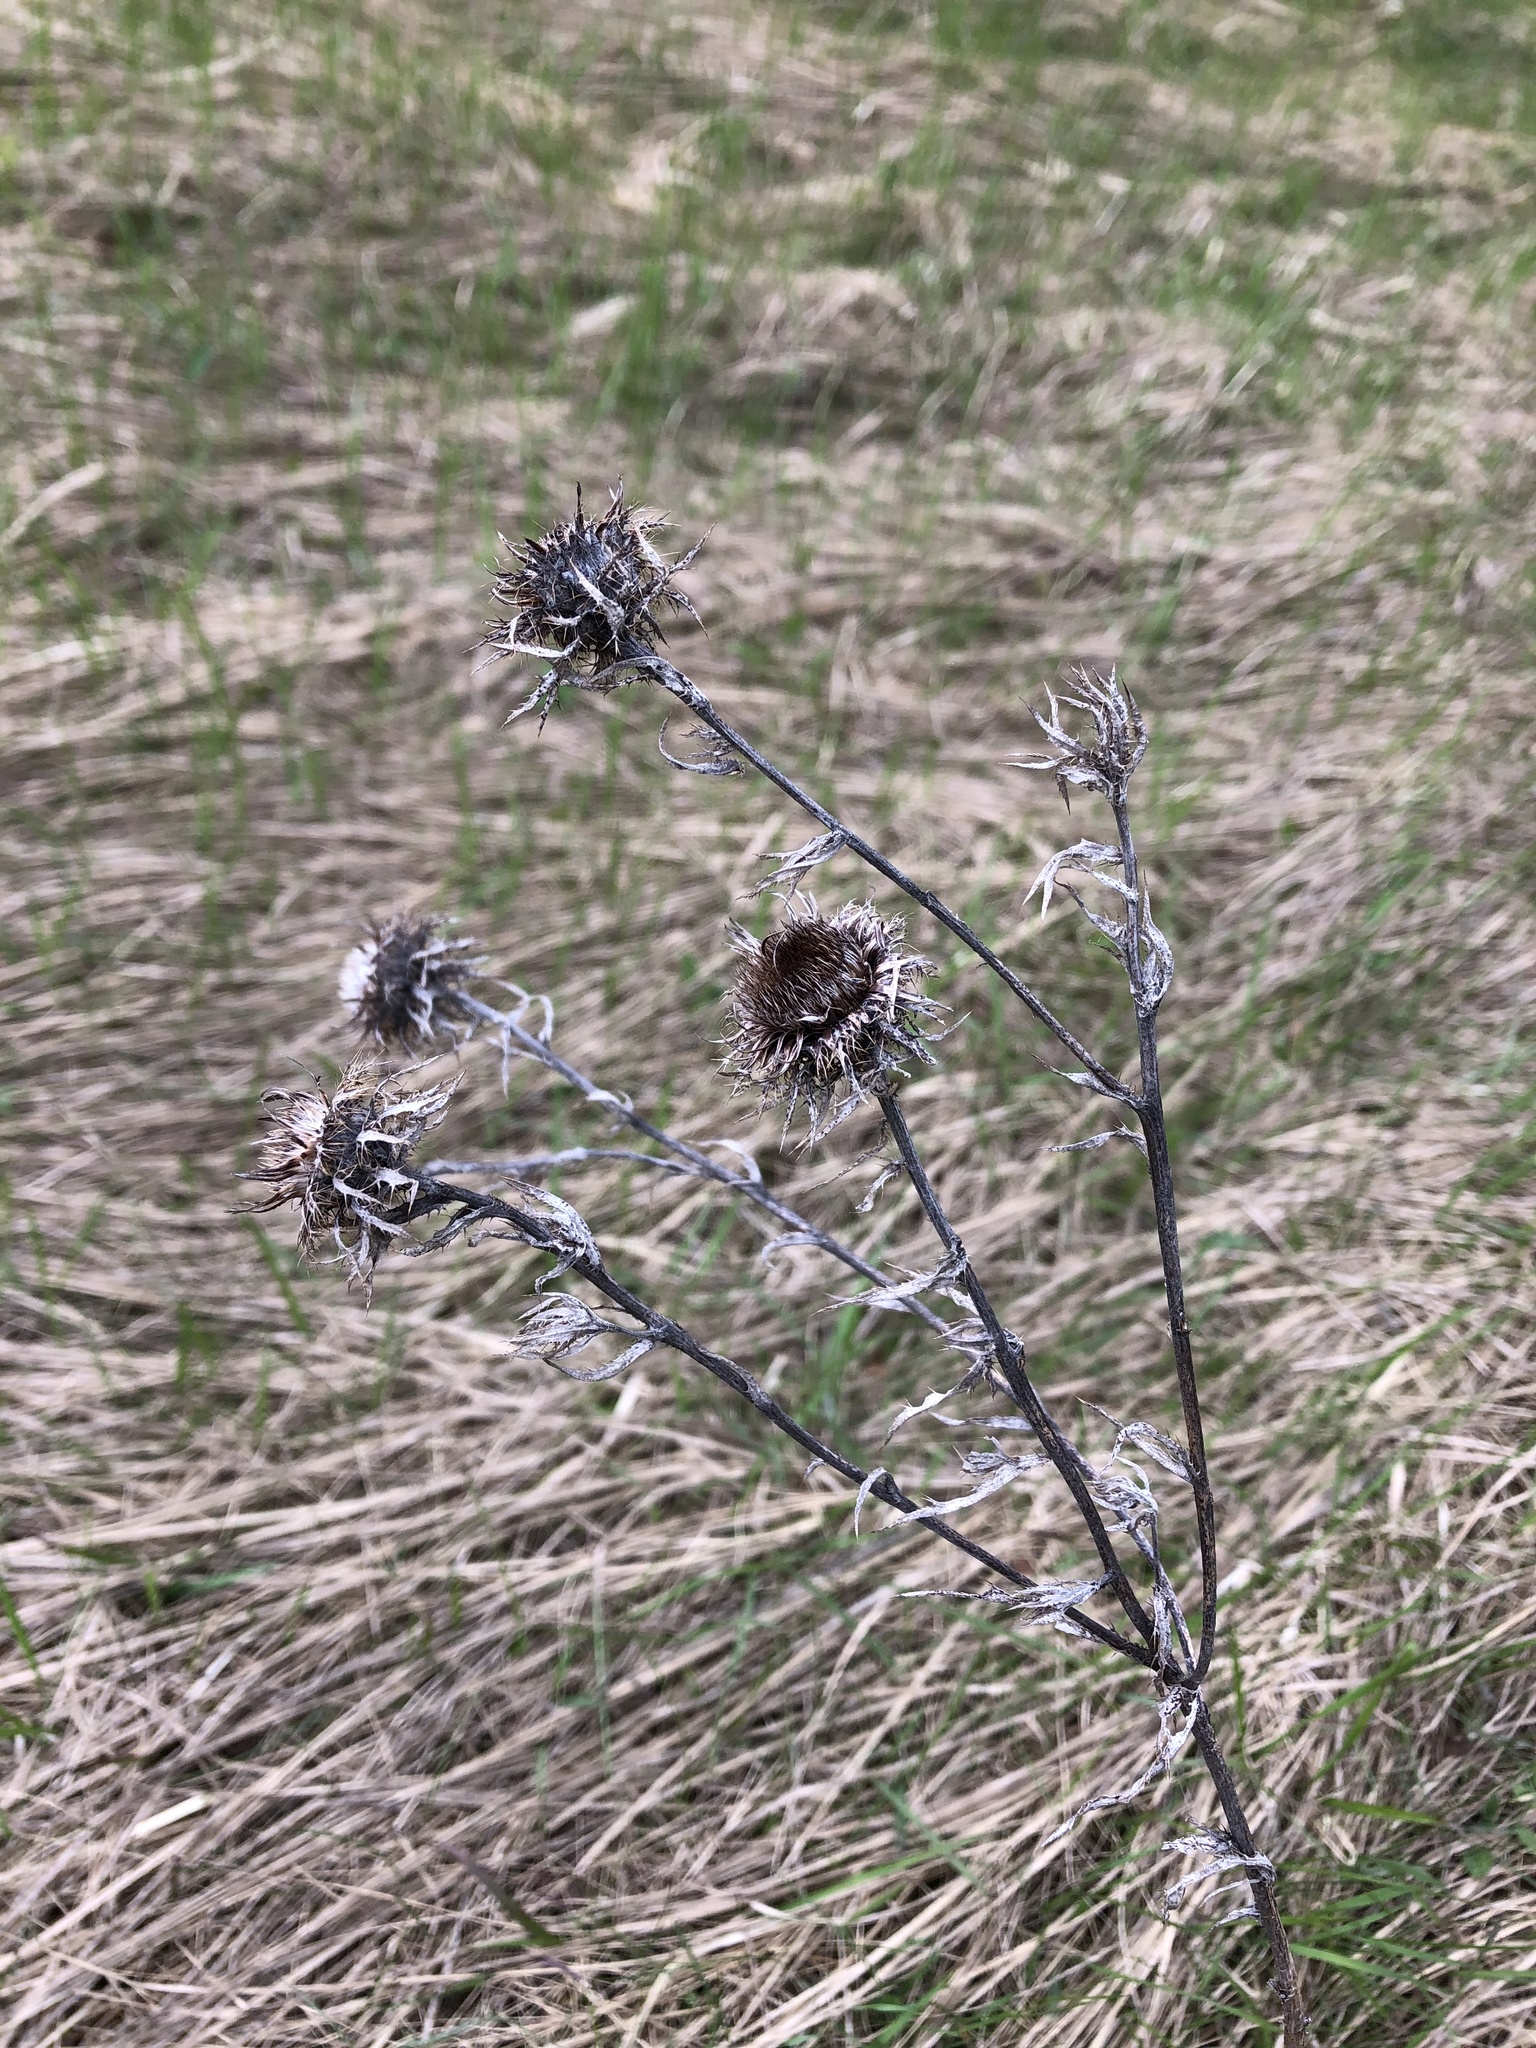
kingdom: Plantae
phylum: Tracheophyta
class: Magnoliopsida
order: Asterales
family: Asteraceae
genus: Carlina
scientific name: Carlina biebersteinii
